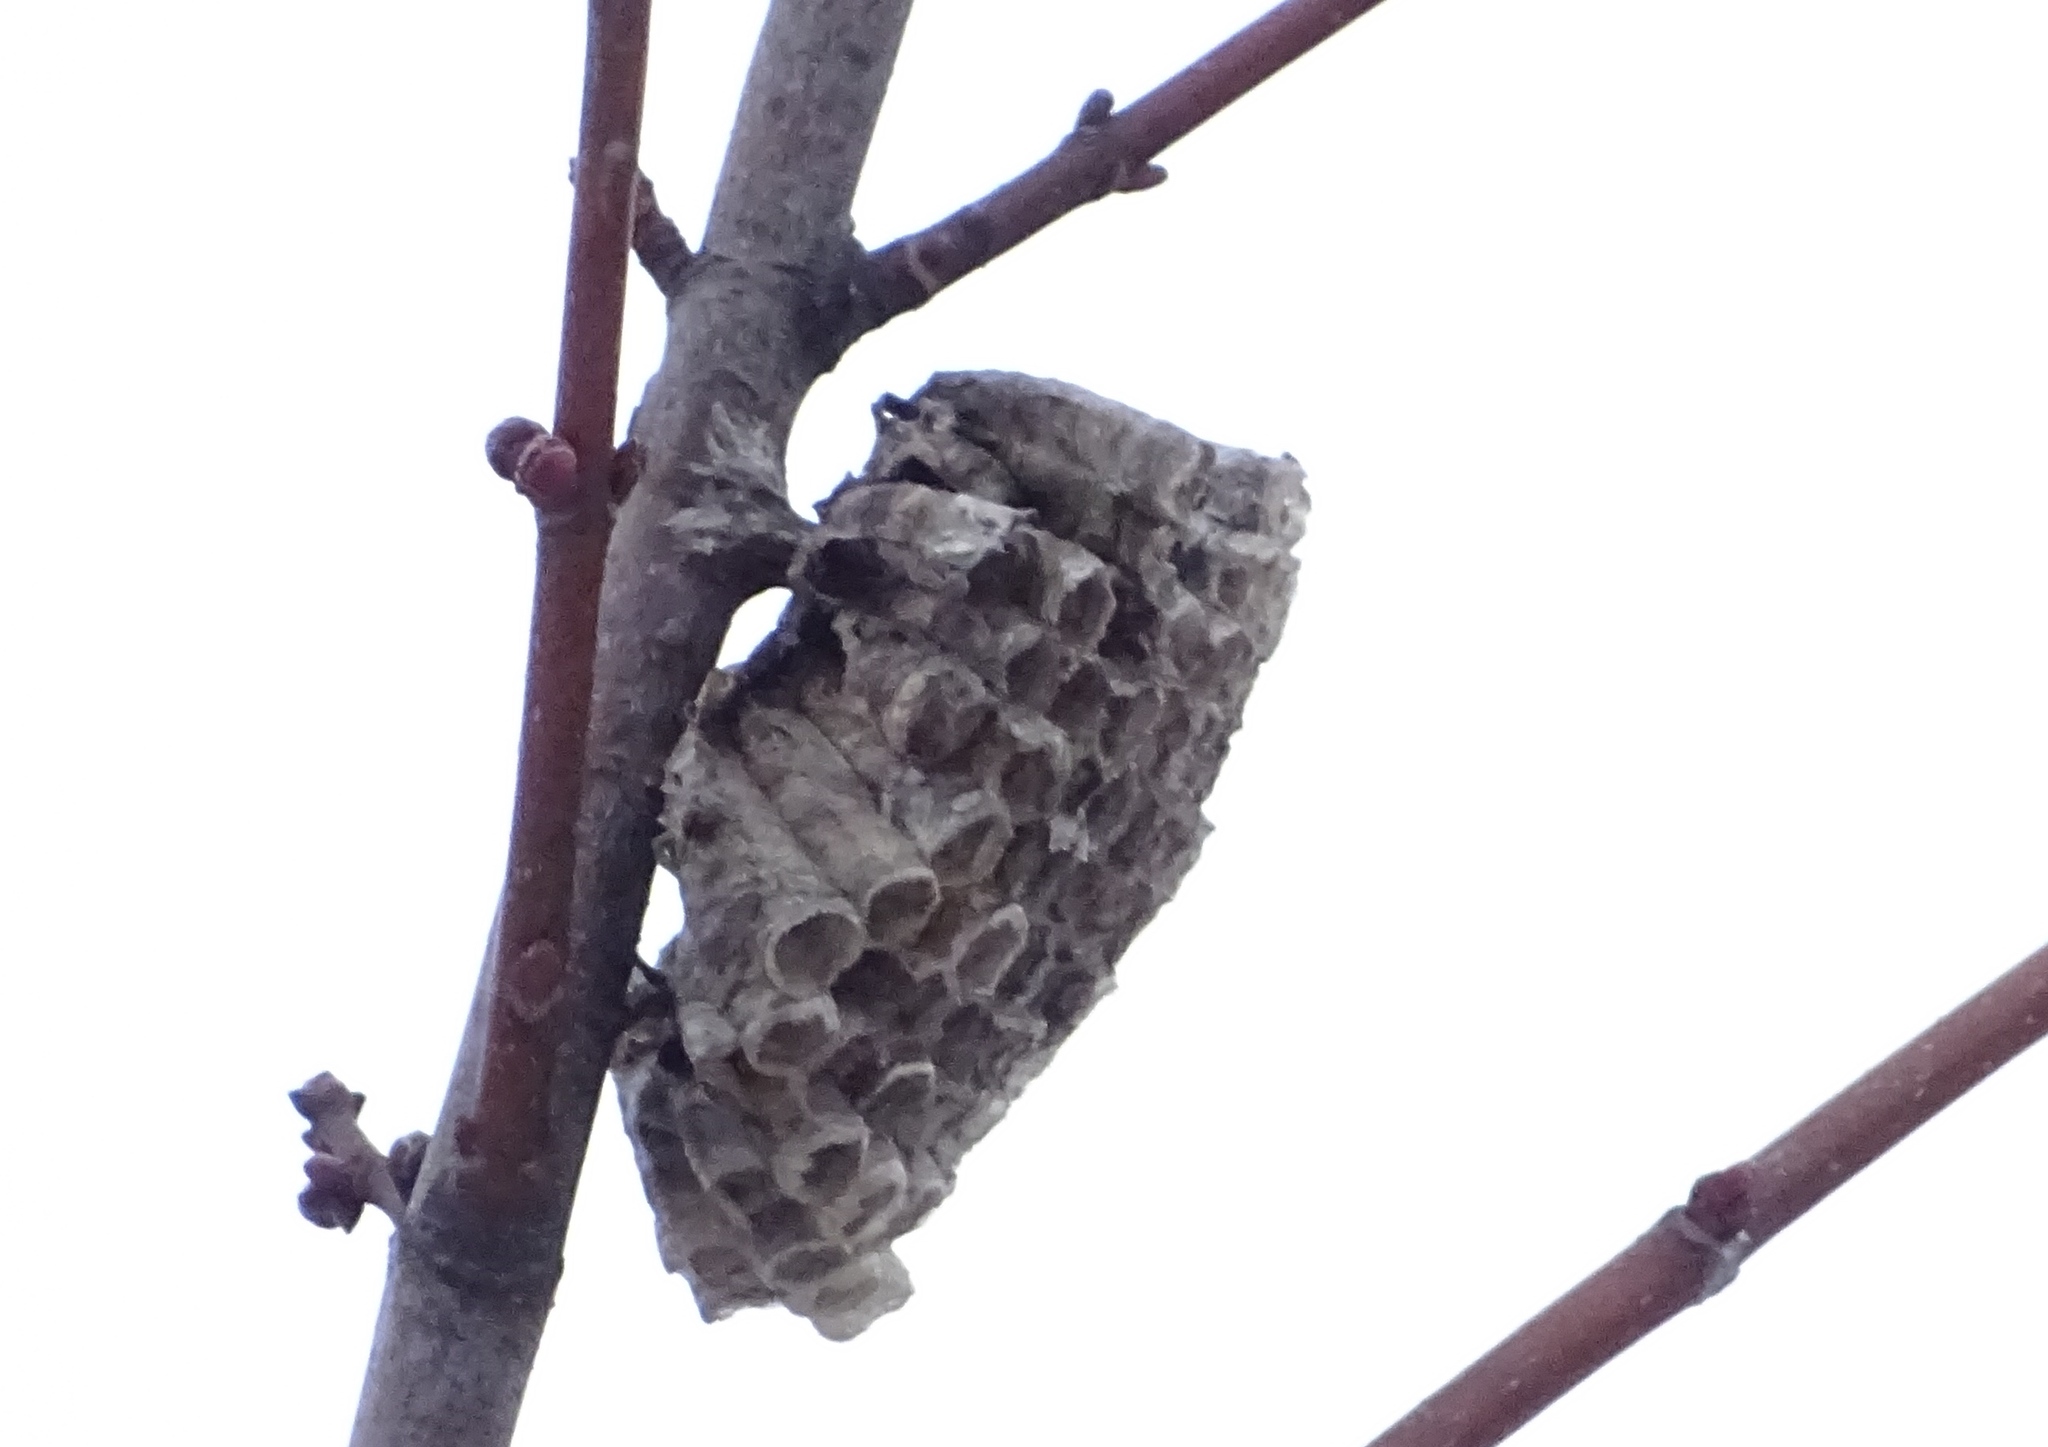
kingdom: Animalia
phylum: Arthropoda
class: Insecta
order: Hymenoptera
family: Eumenidae
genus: Polistes
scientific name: Polistes
